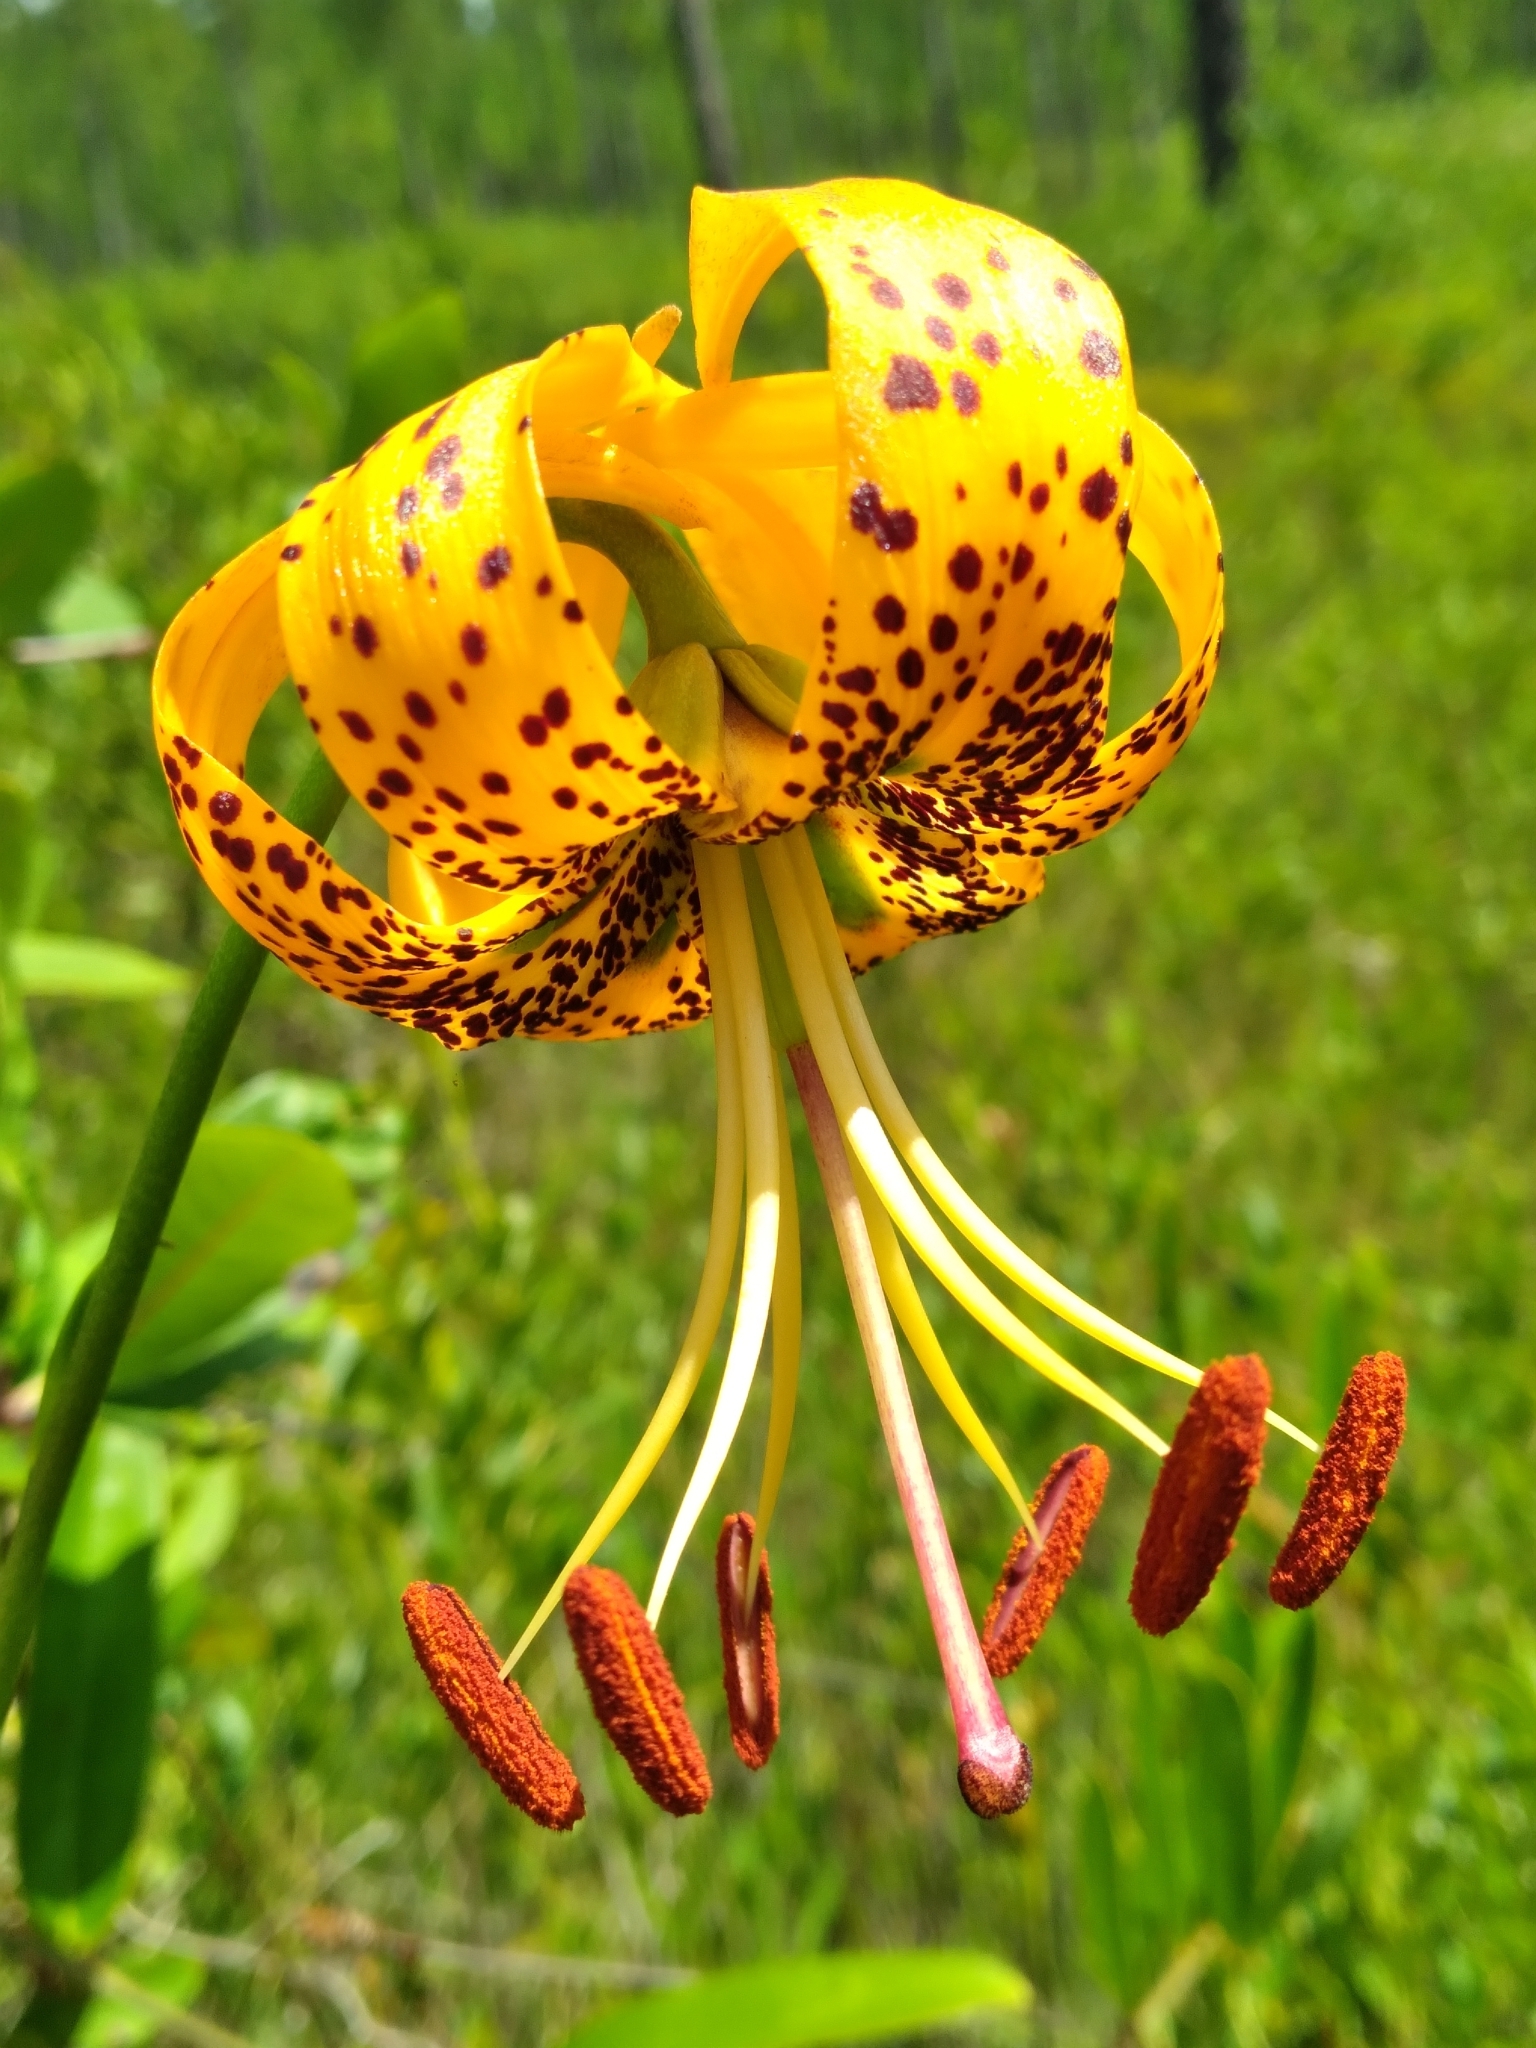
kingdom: Plantae
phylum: Tracheophyta
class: Liliopsida
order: Liliales
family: Liliaceae
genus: Lilium
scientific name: Lilium iridollae
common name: Panhandle lily
